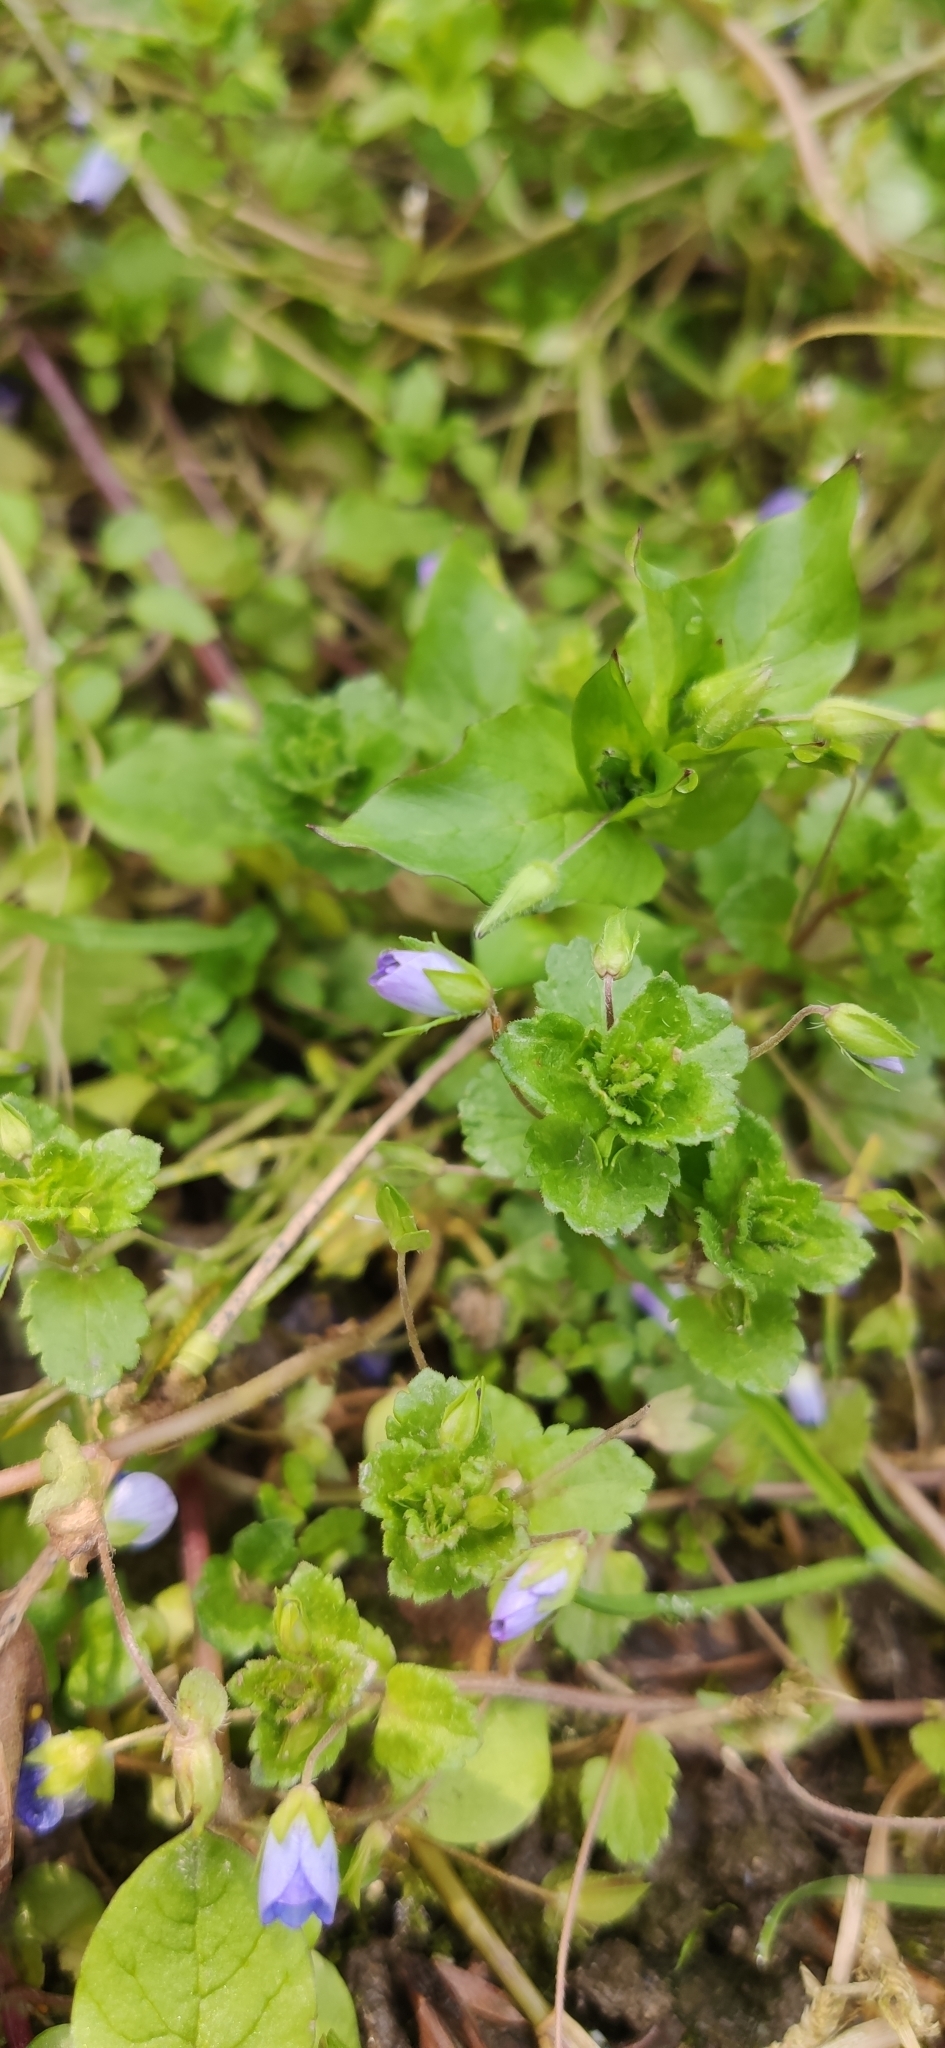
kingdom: Plantae
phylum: Tracheophyta
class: Magnoliopsida
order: Lamiales
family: Plantaginaceae
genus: Veronica
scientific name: Veronica persica
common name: Common field-speedwell
